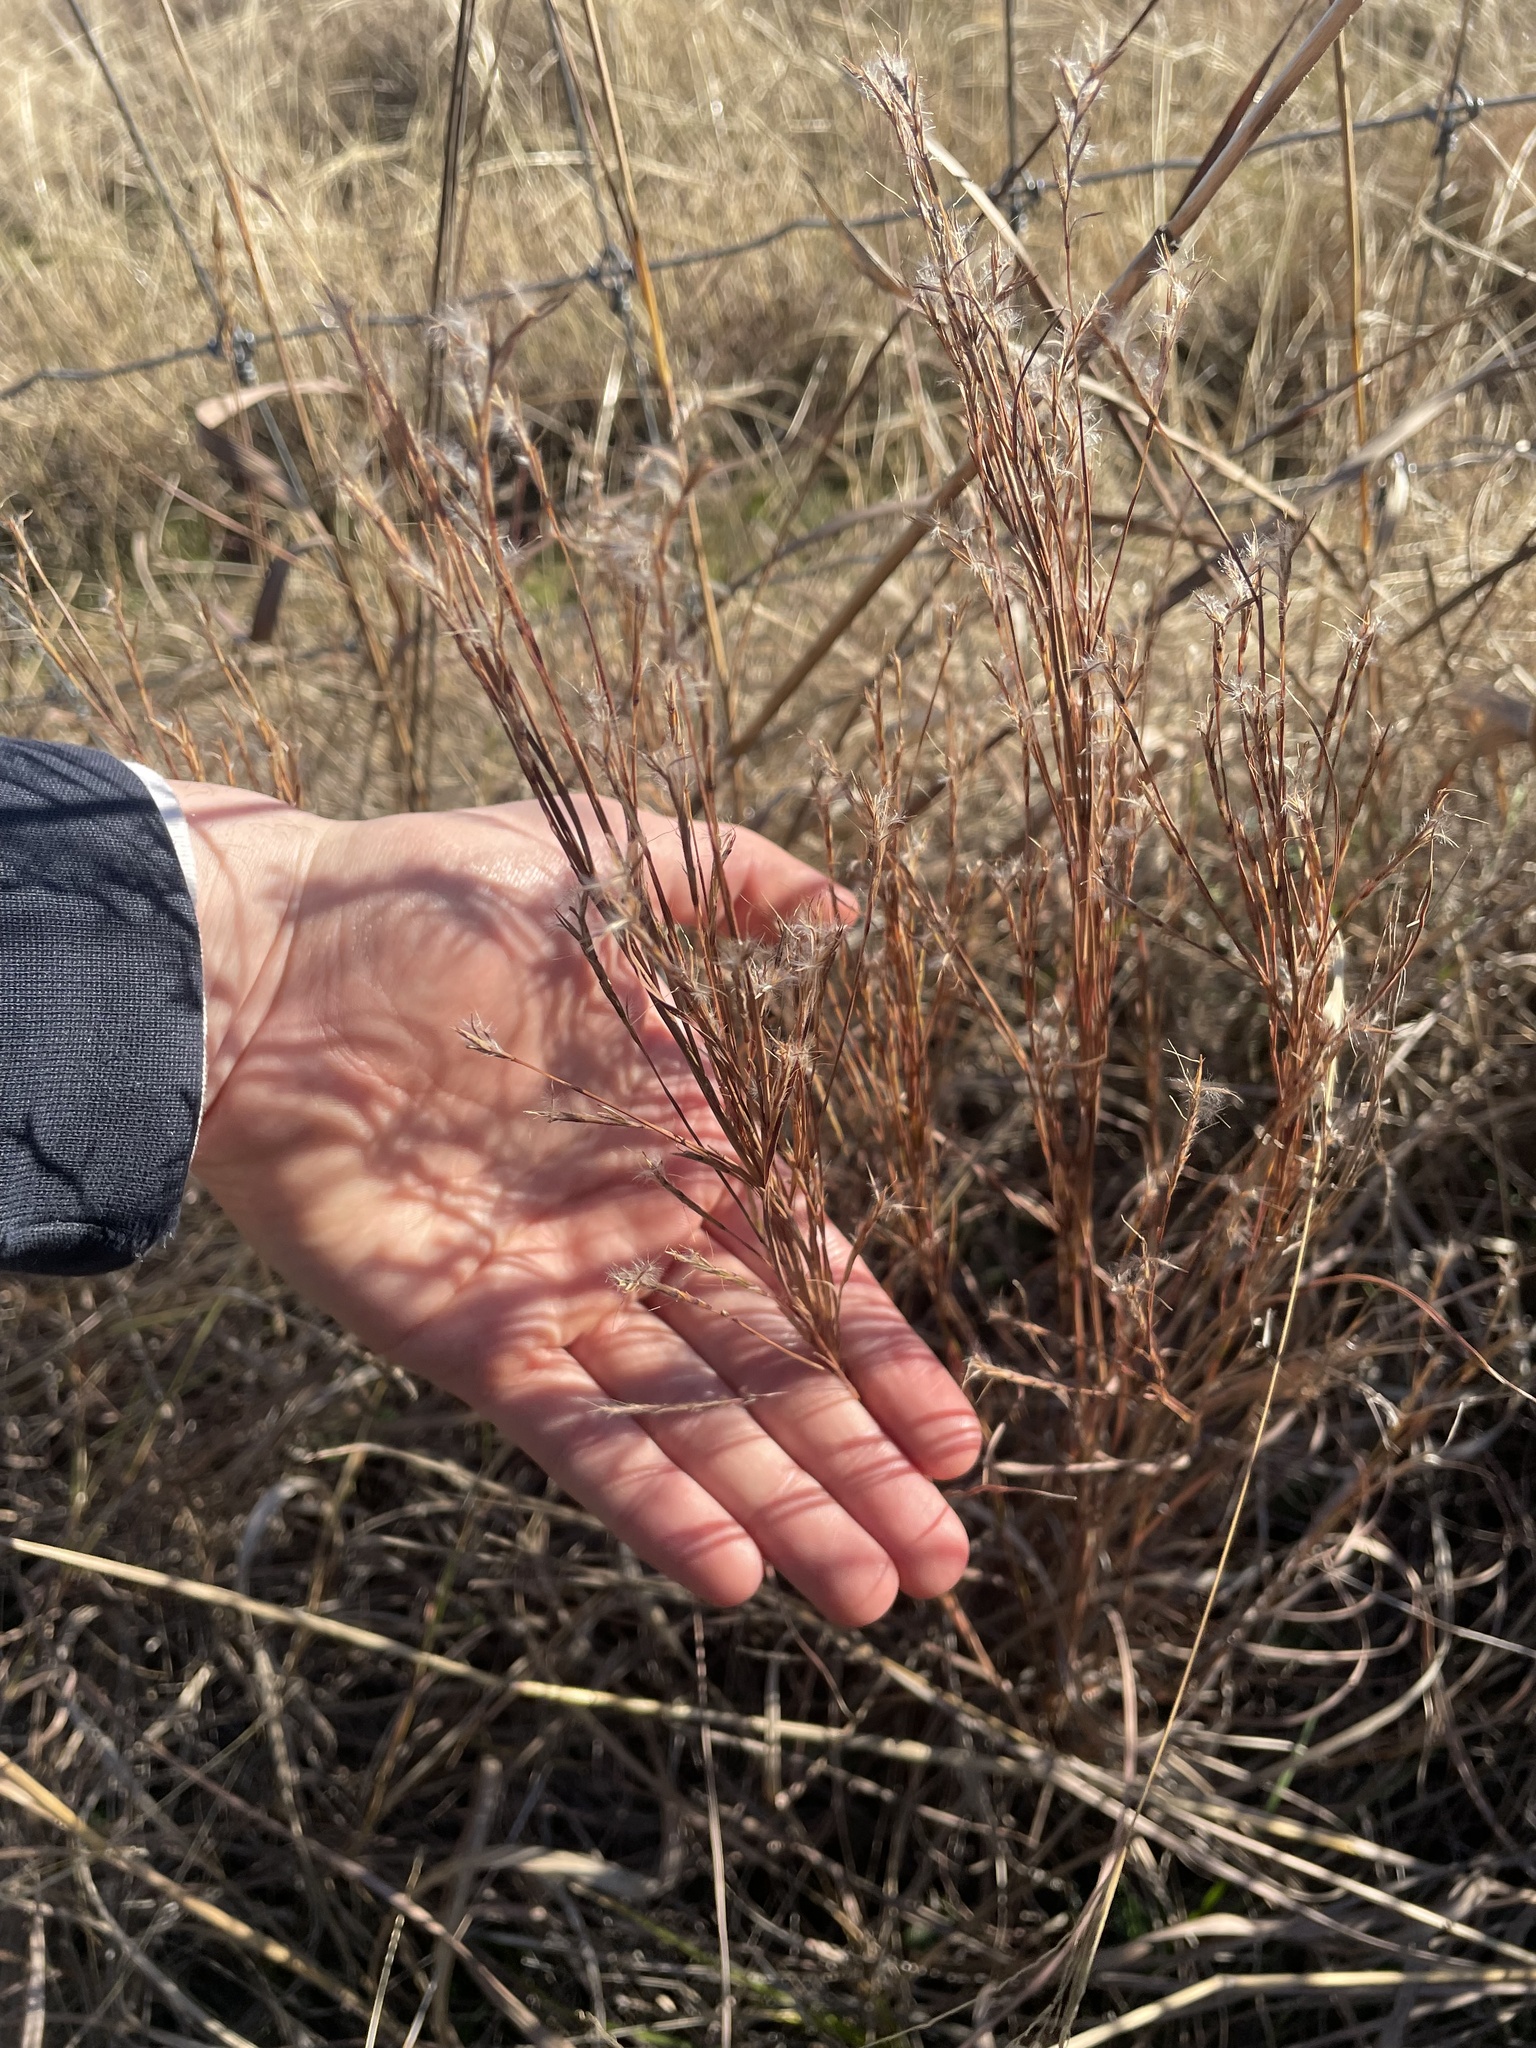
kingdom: Plantae
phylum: Tracheophyta
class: Liliopsida
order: Poales
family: Poaceae
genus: Schizachyrium
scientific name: Schizachyrium scoparium
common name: Little bluestem
